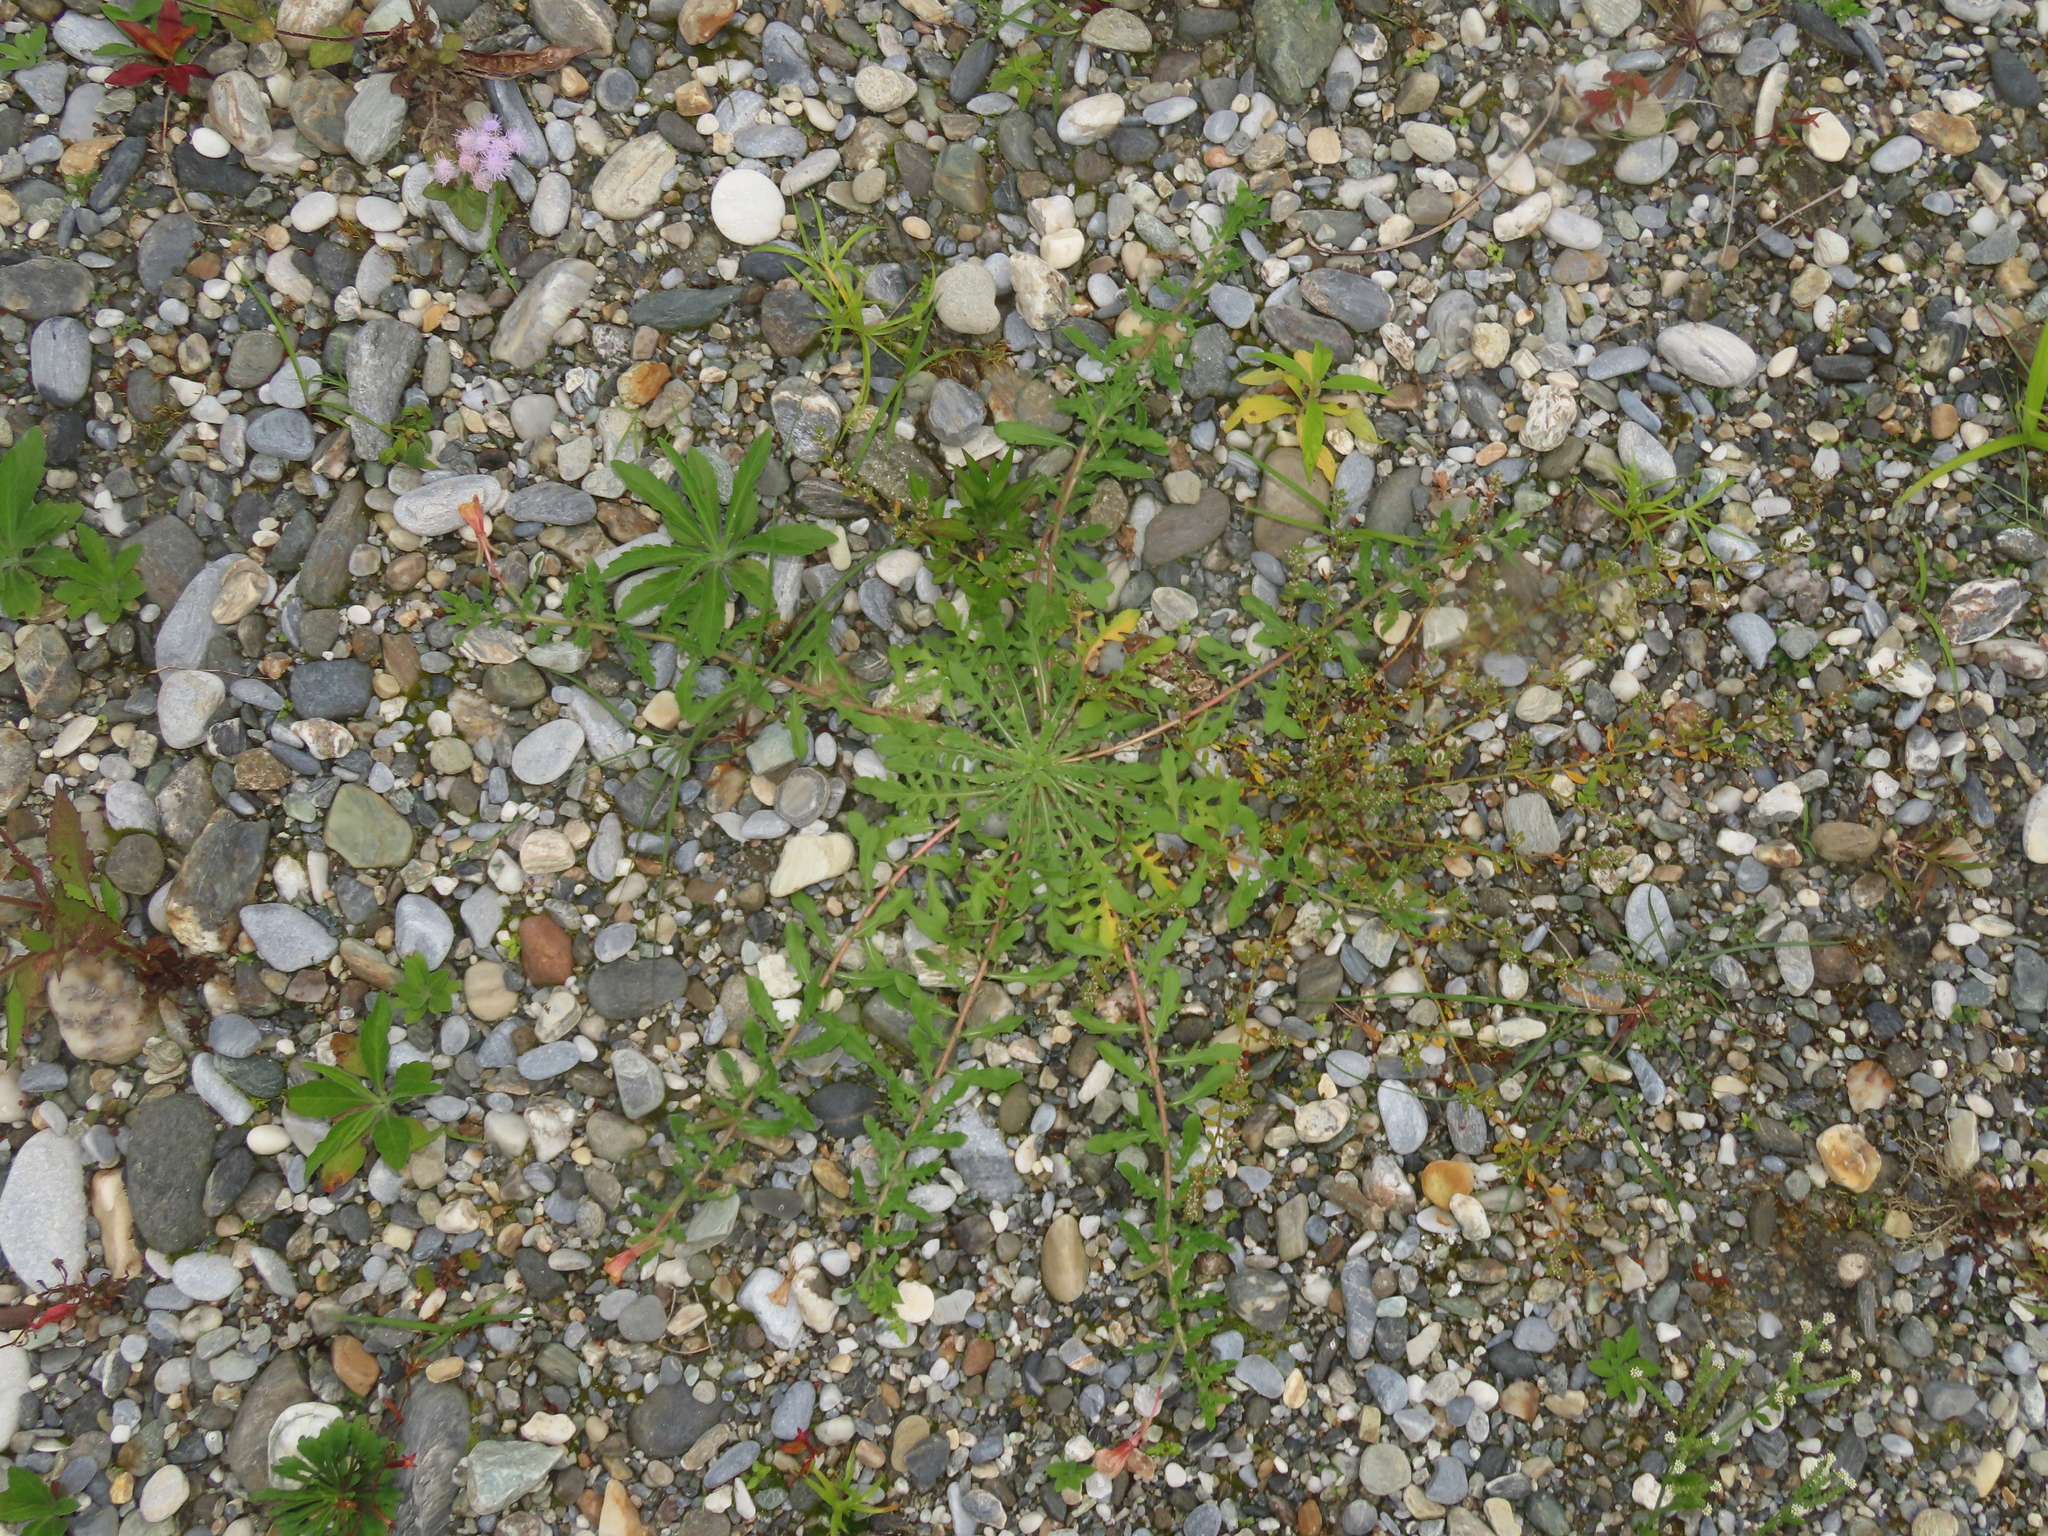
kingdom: Plantae
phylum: Tracheophyta
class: Magnoliopsida
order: Myrtales
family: Onagraceae
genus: Oenothera
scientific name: Oenothera laciniata
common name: Cut-leaved evening-primrose
